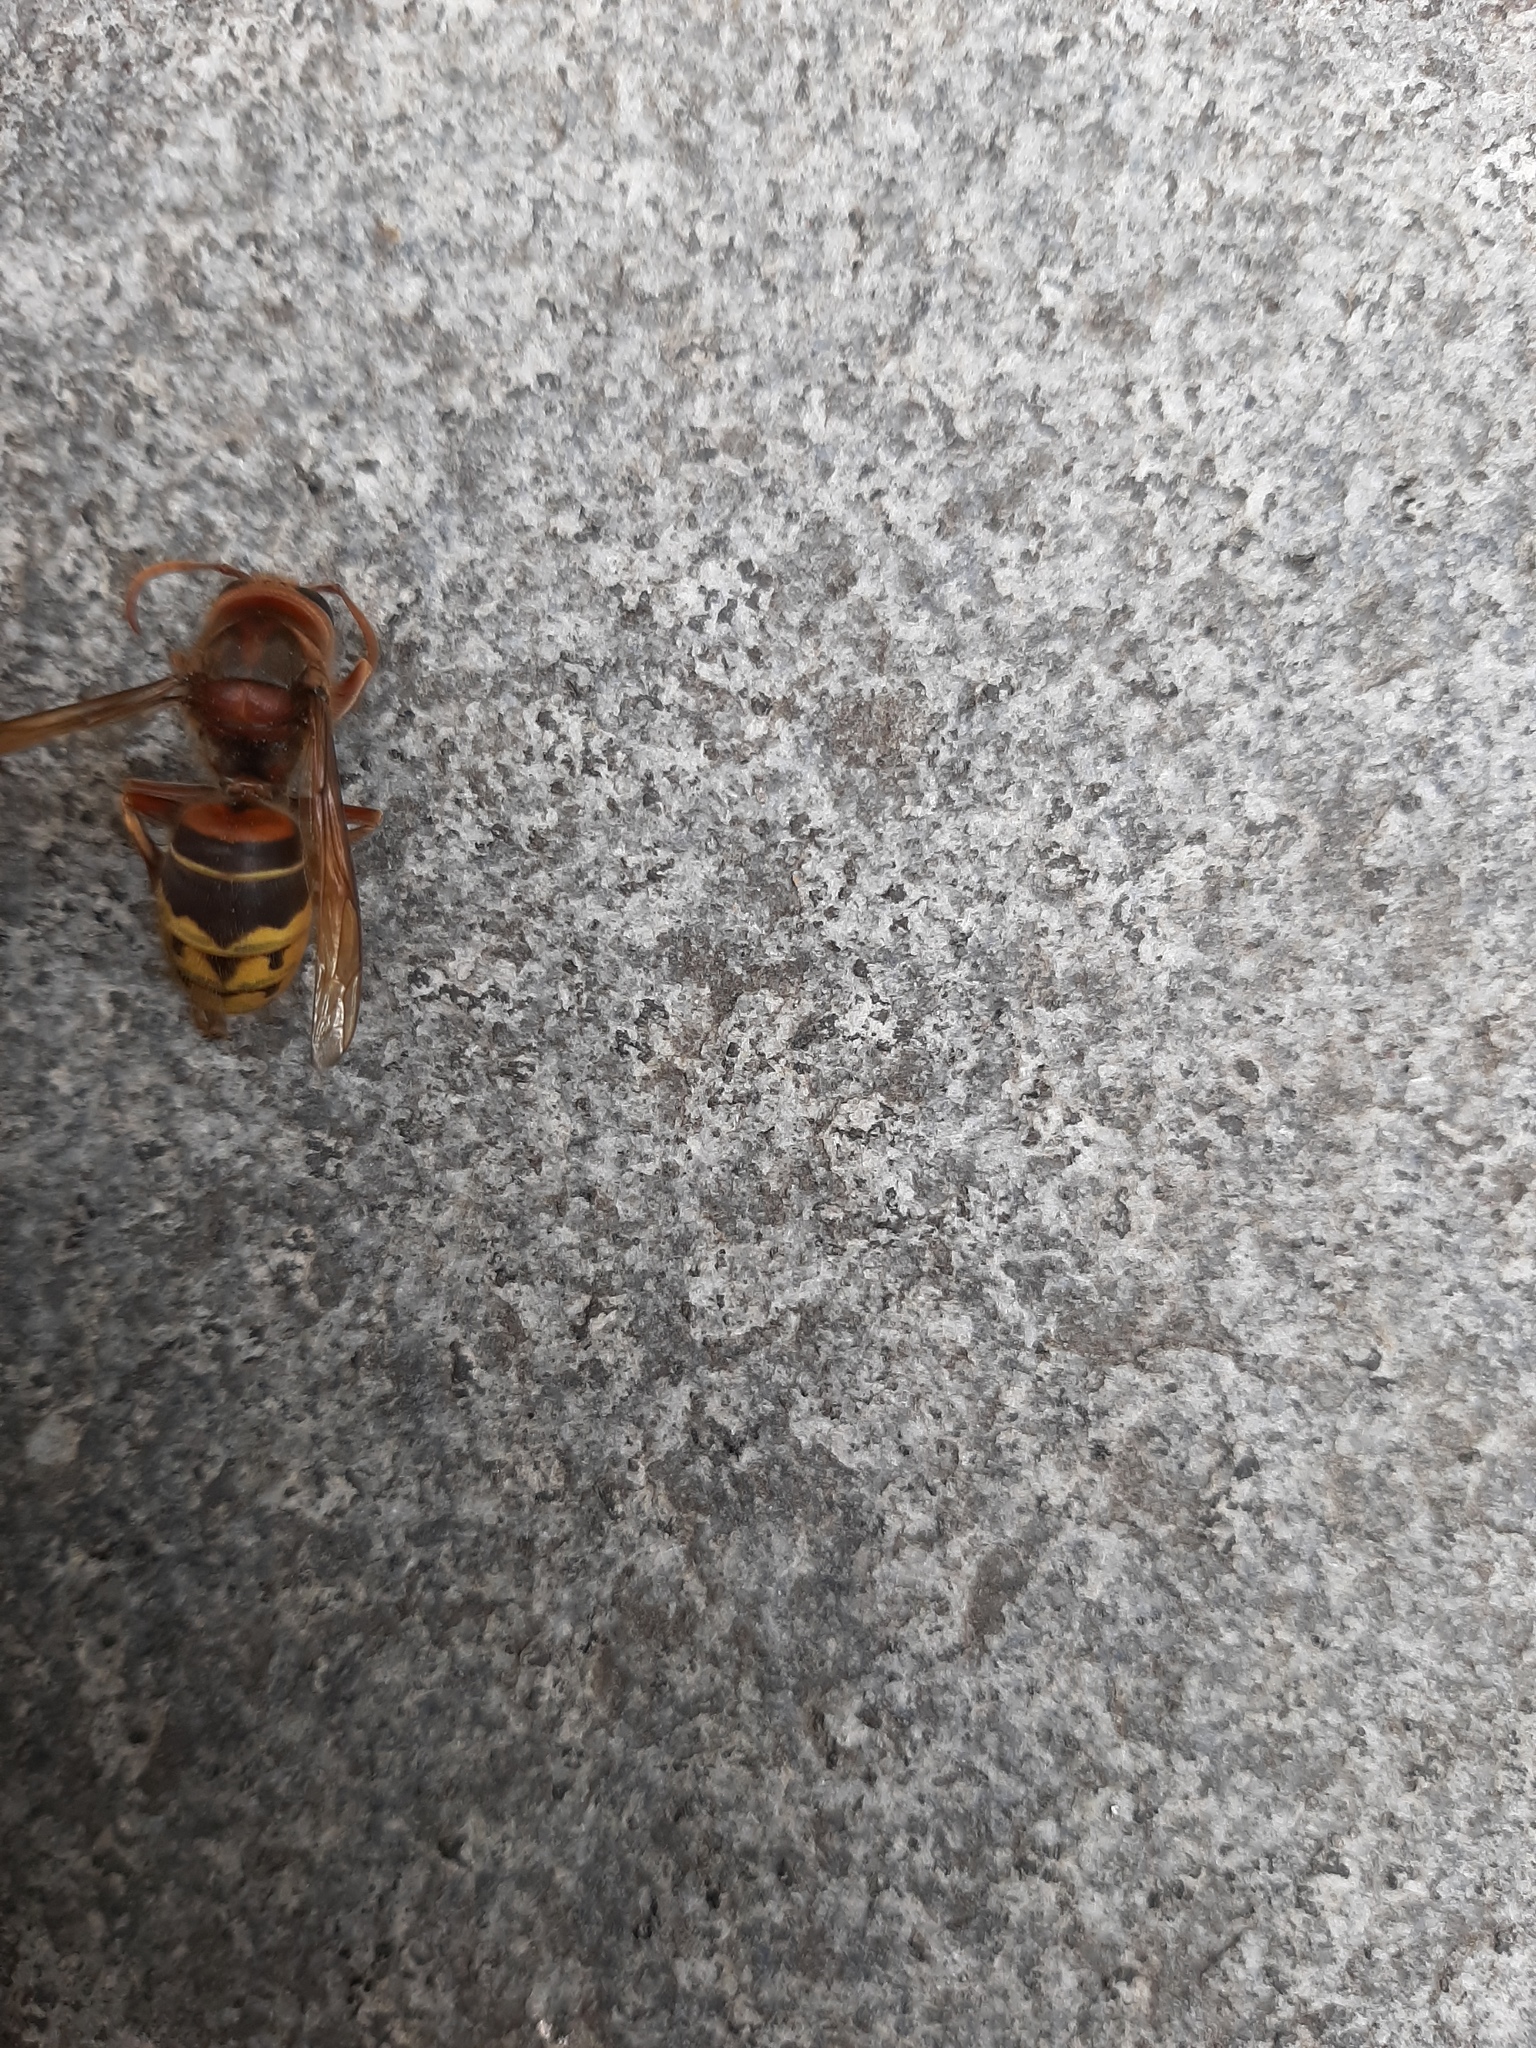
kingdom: Animalia
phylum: Arthropoda
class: Insecta
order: Hymenoptera
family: Vespidae
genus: Vespa
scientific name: Vespa crabro
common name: Hornet
